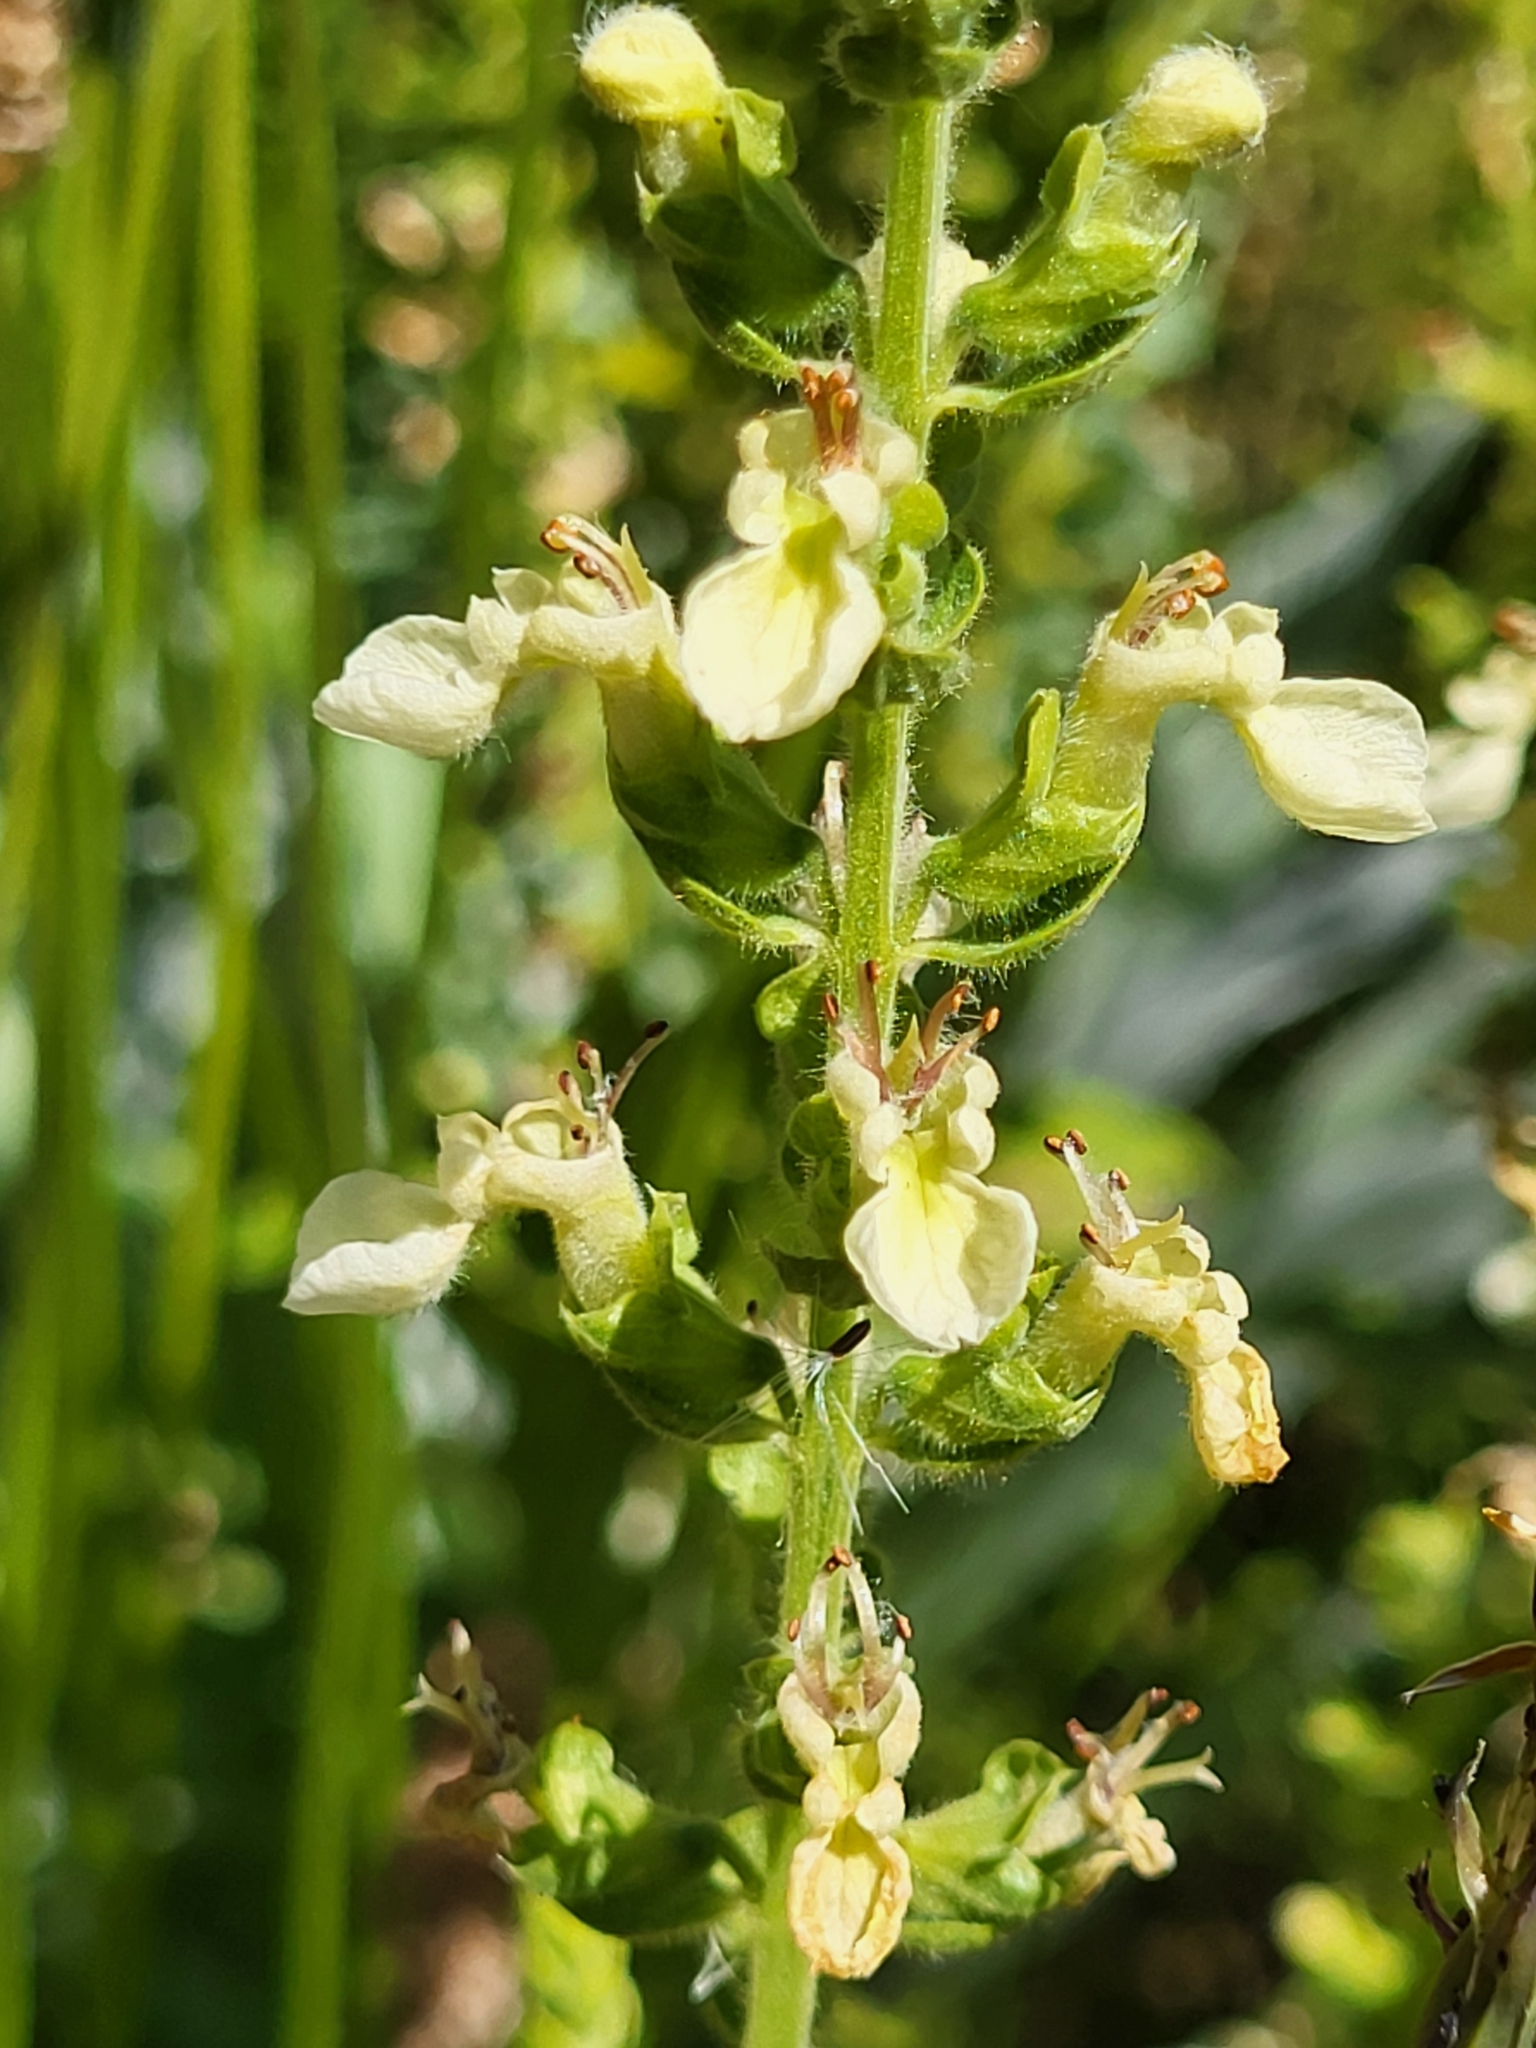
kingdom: Plantae
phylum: Tracheophyta
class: Magnoliopsida
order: Lamiales
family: Lamiaceae
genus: Teucrium
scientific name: Teucrium francoi
